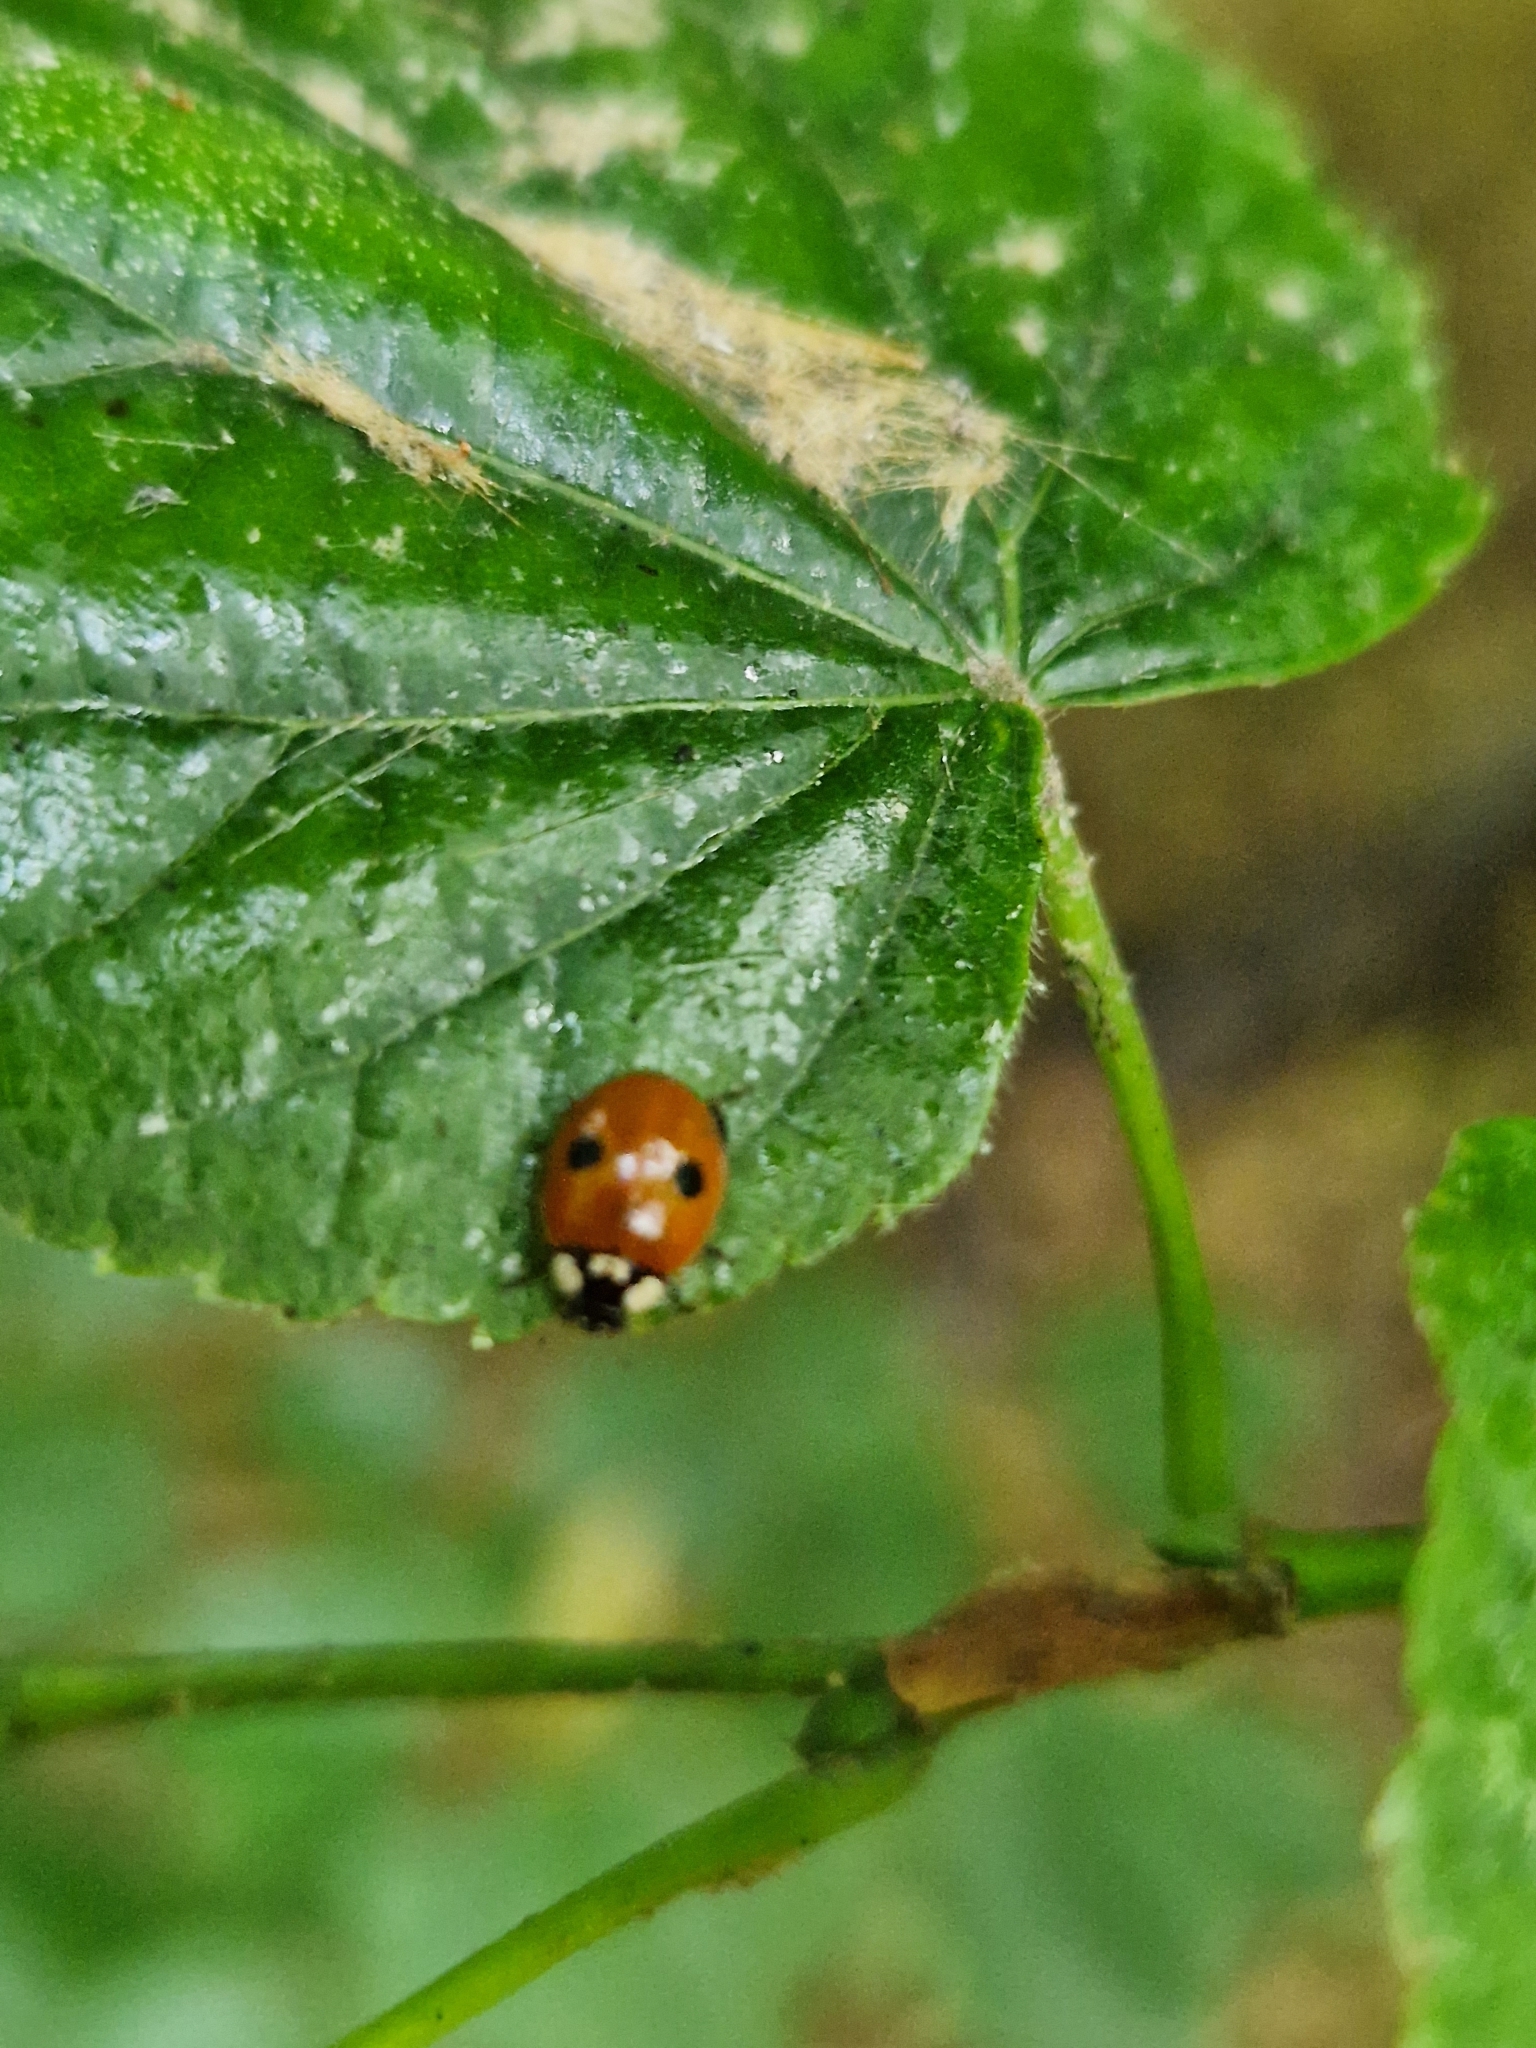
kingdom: Animalia
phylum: Arthropoda
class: Insecta
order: Coleoptera
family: Coccinellidae
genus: Adalia
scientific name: Adalia bipunctata
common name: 2-spot ladybird
